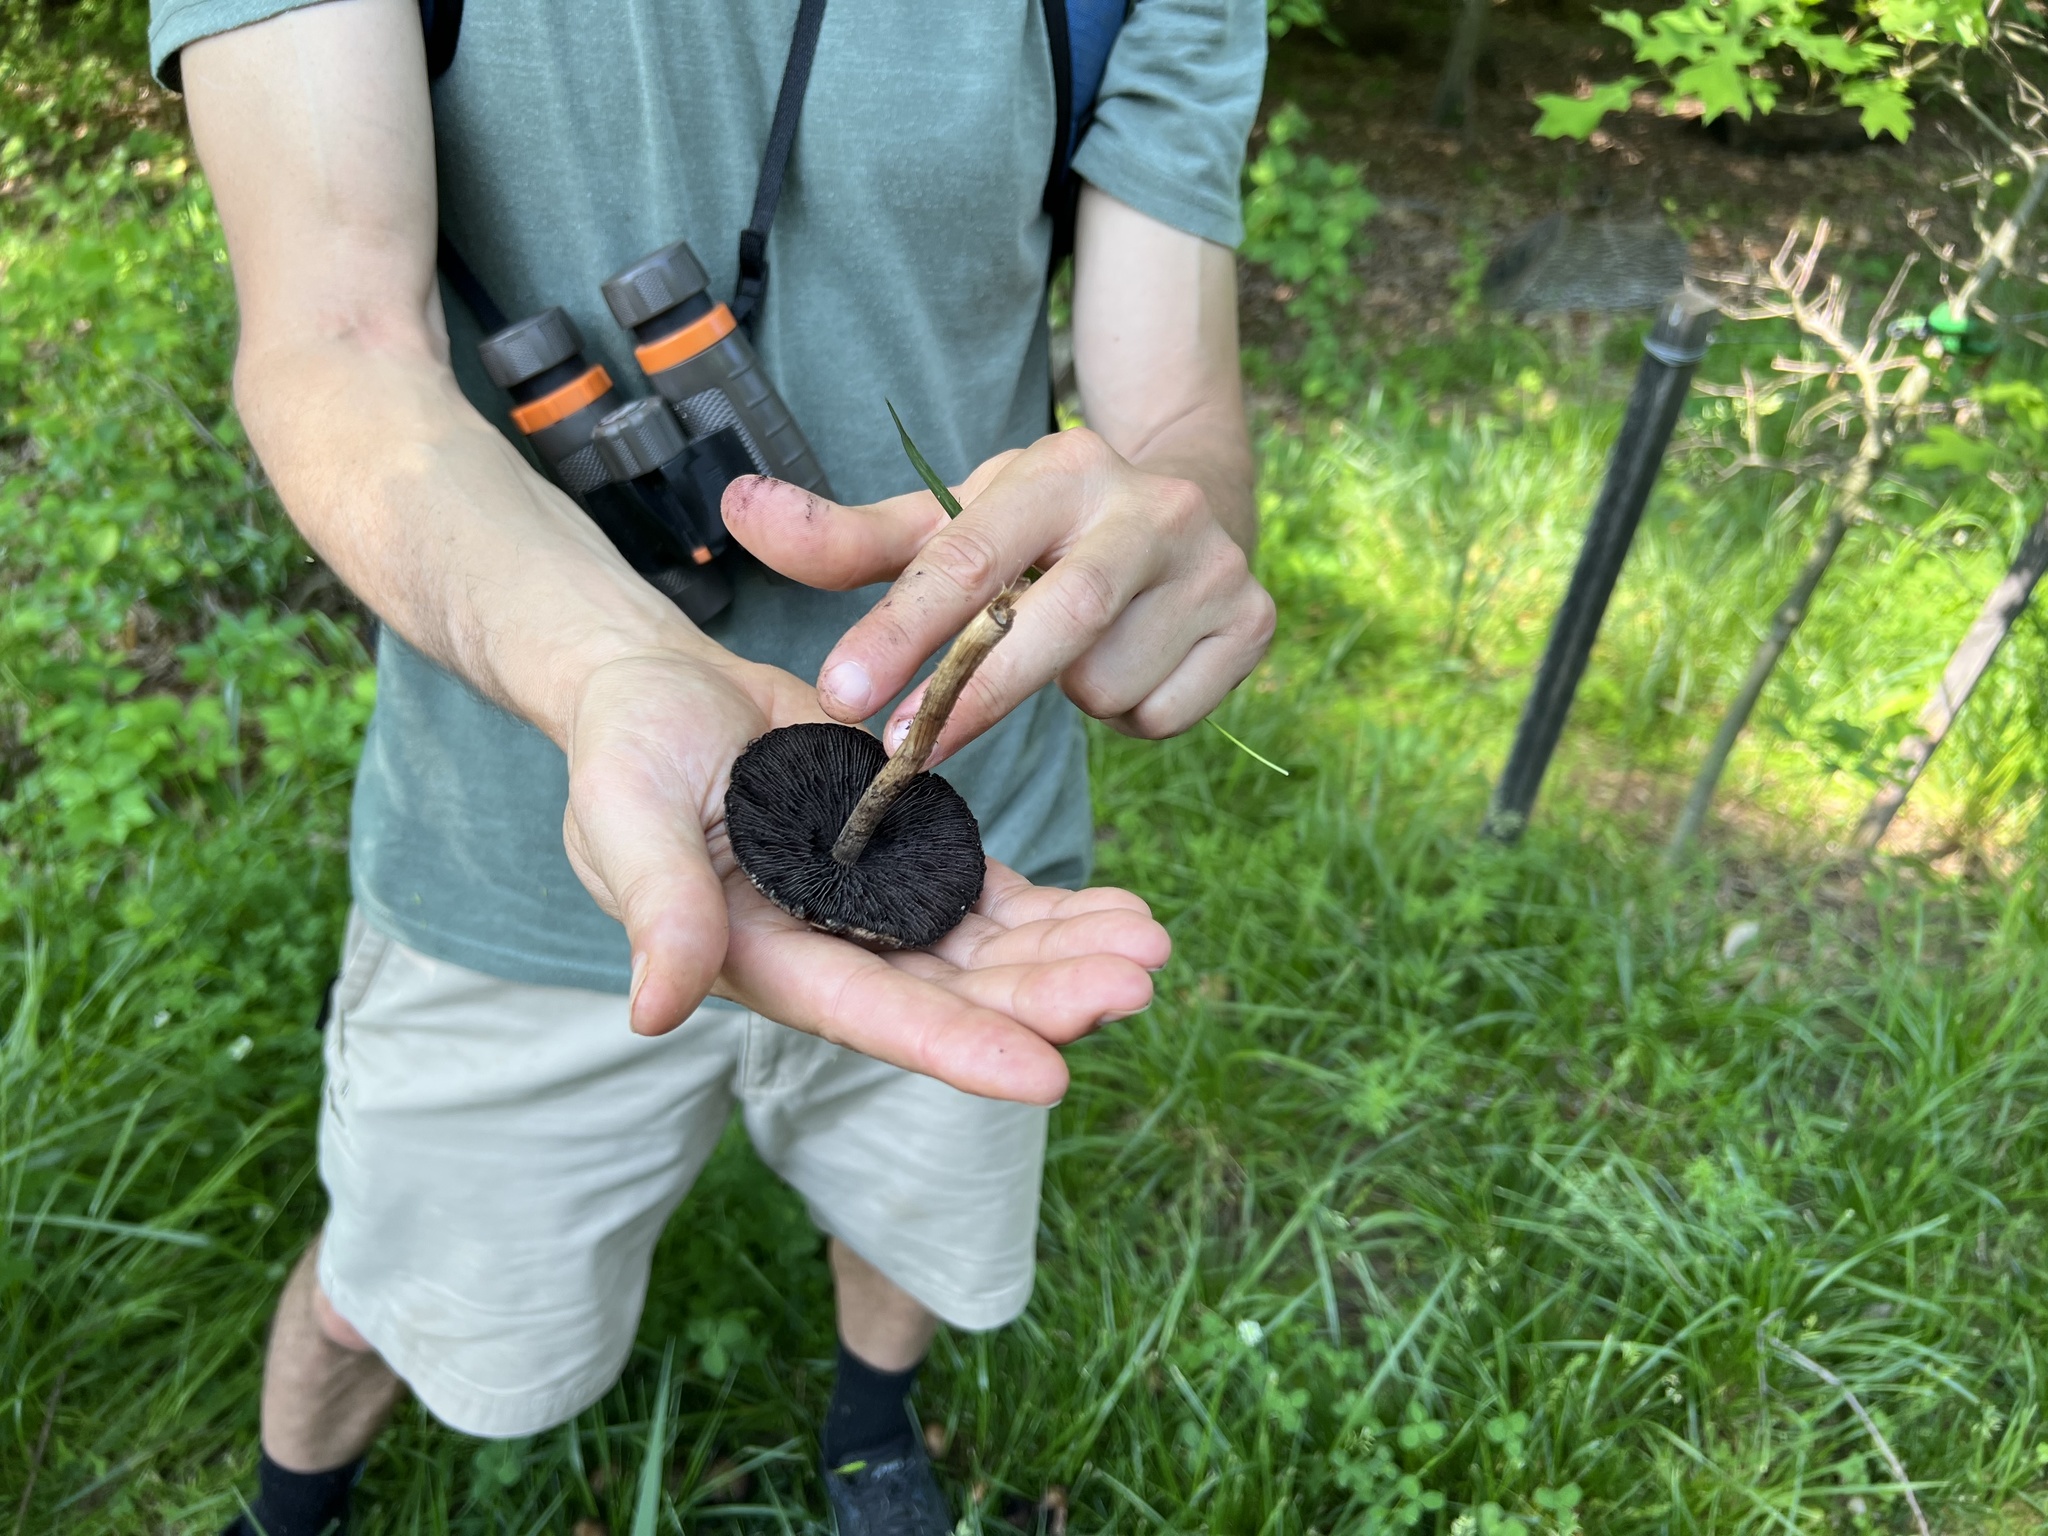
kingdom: Fungi
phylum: Basidiomycota
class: Agaricomycetes
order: Agaricales
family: Psathyrellaceae
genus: Lacrymaria
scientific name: Lacrymaria lacrymabunda
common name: Weeping widow
